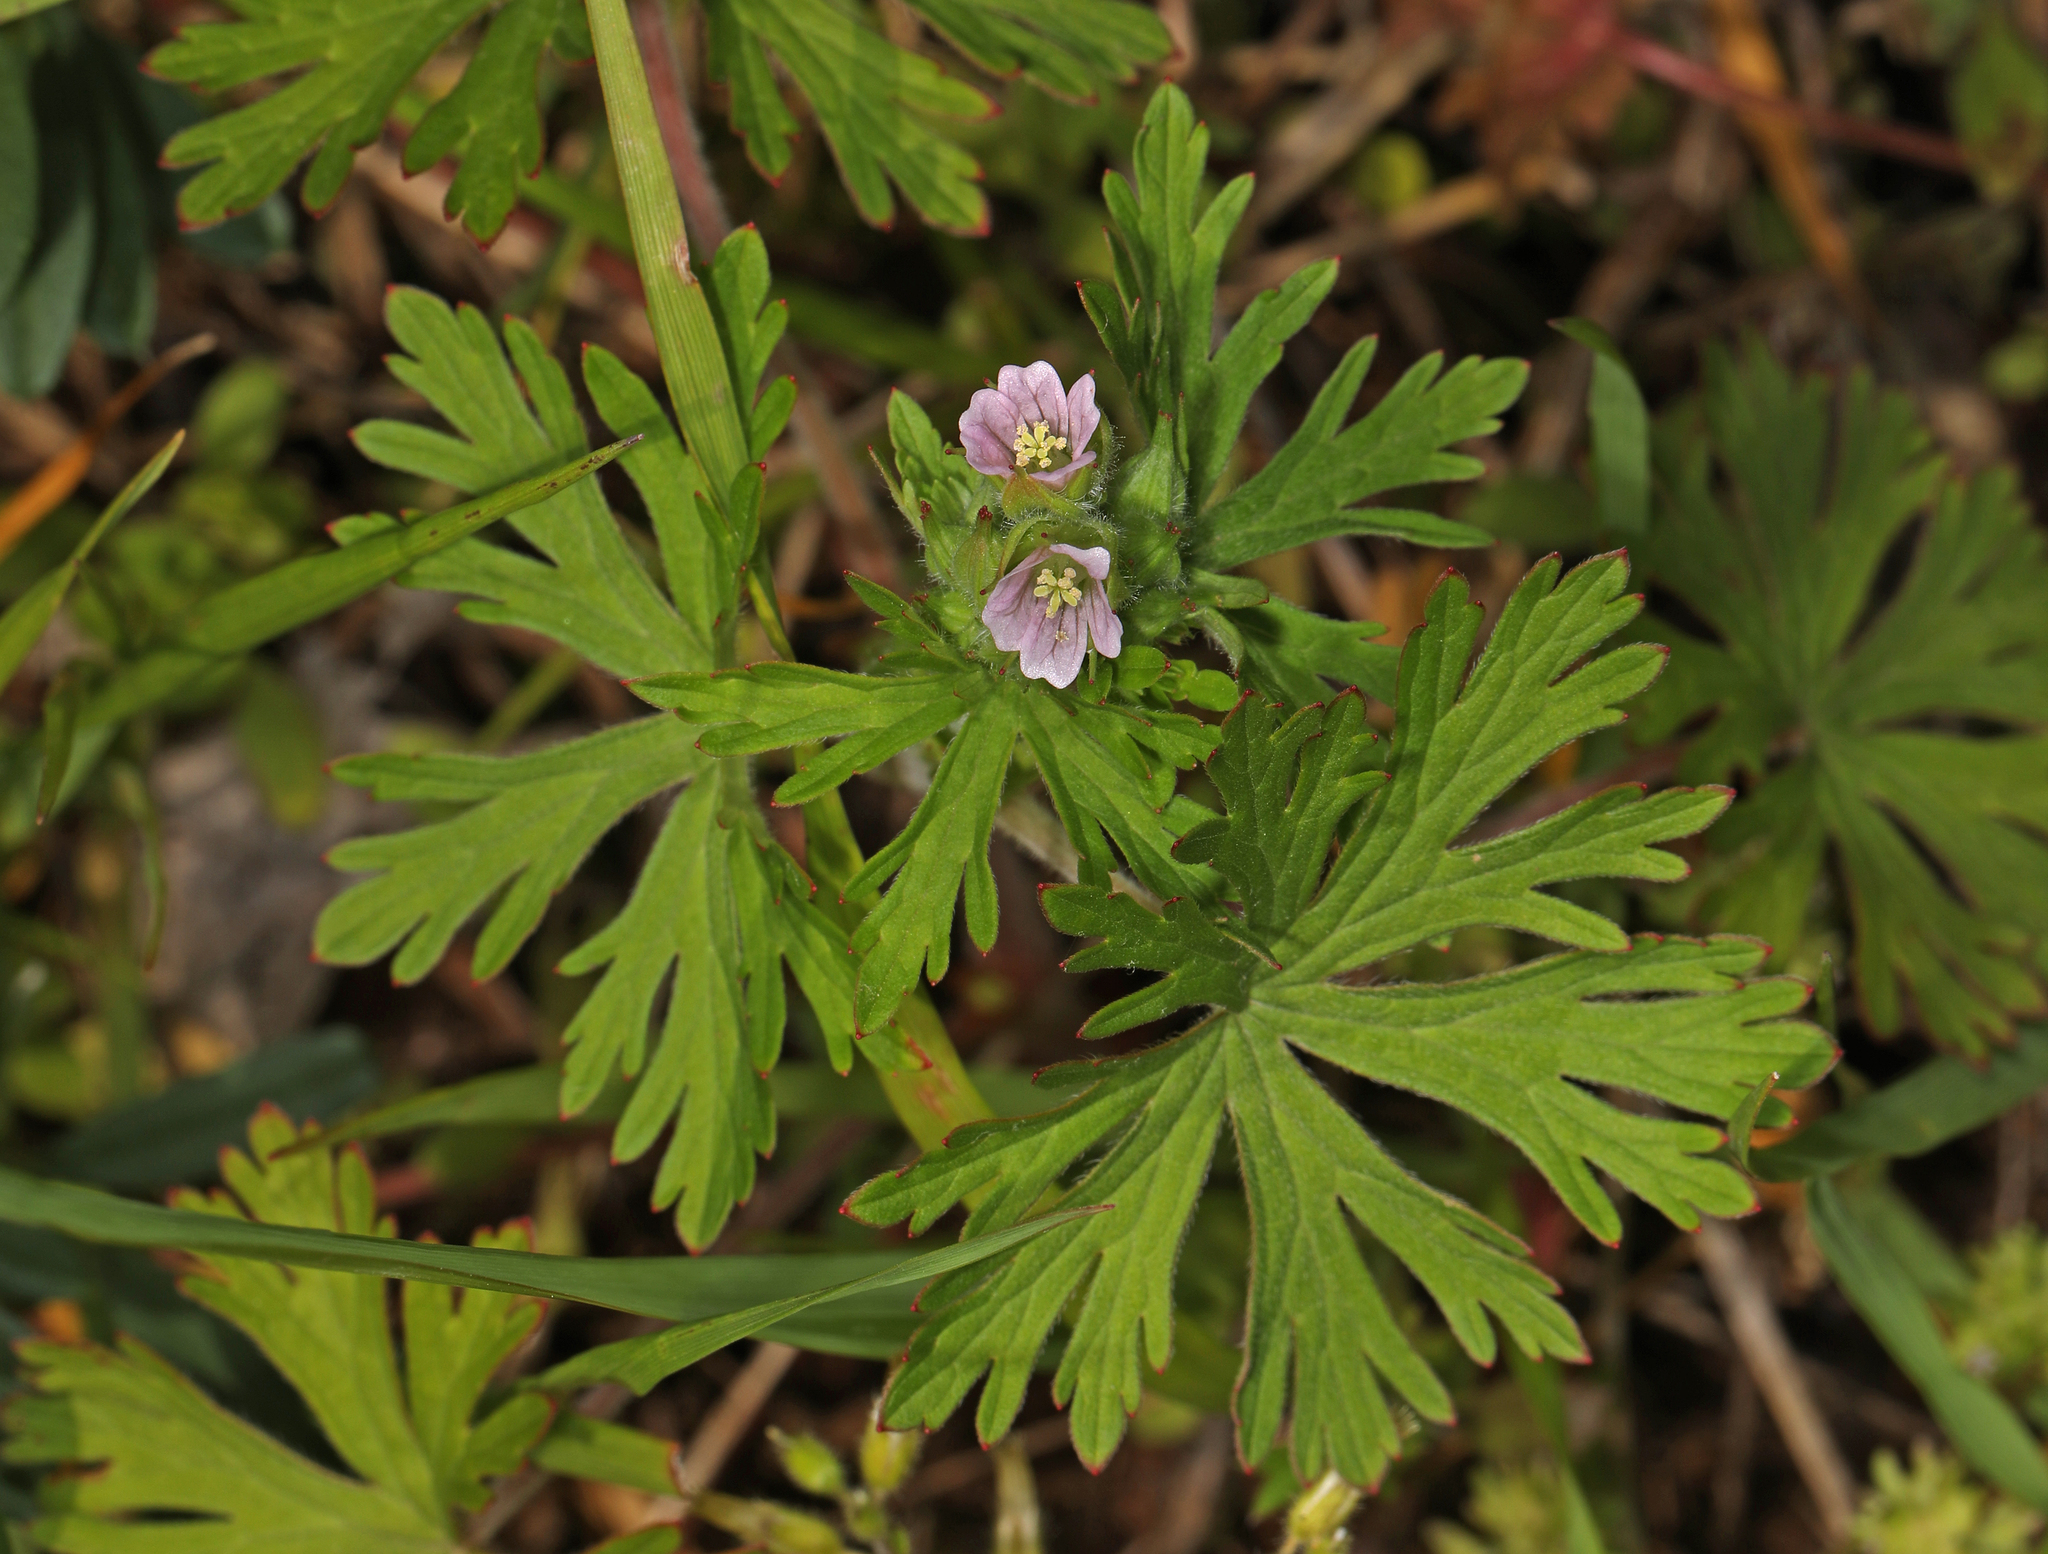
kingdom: Plantae
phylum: Tracheophyta
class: Magnoliopsida
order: Geraniales
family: Geraniaceae
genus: Geranium
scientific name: Geranium carolinianum
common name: Carolina crane's-bill
